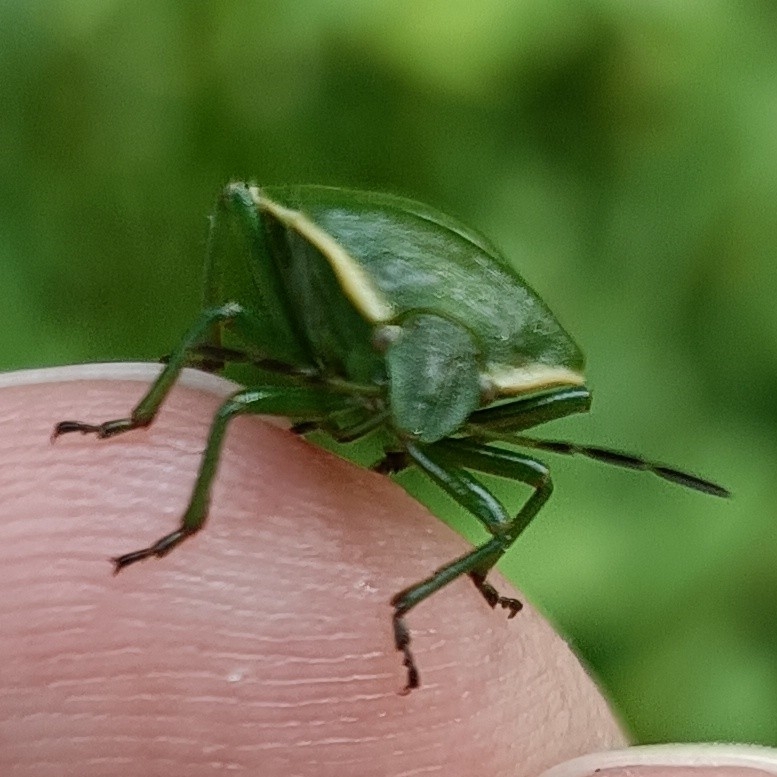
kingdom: Animalia
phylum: Arthropoda
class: Insecta
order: Hemiptera
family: Pentatomidae
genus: Chlorochroa
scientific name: Chlorochroa juniperina
